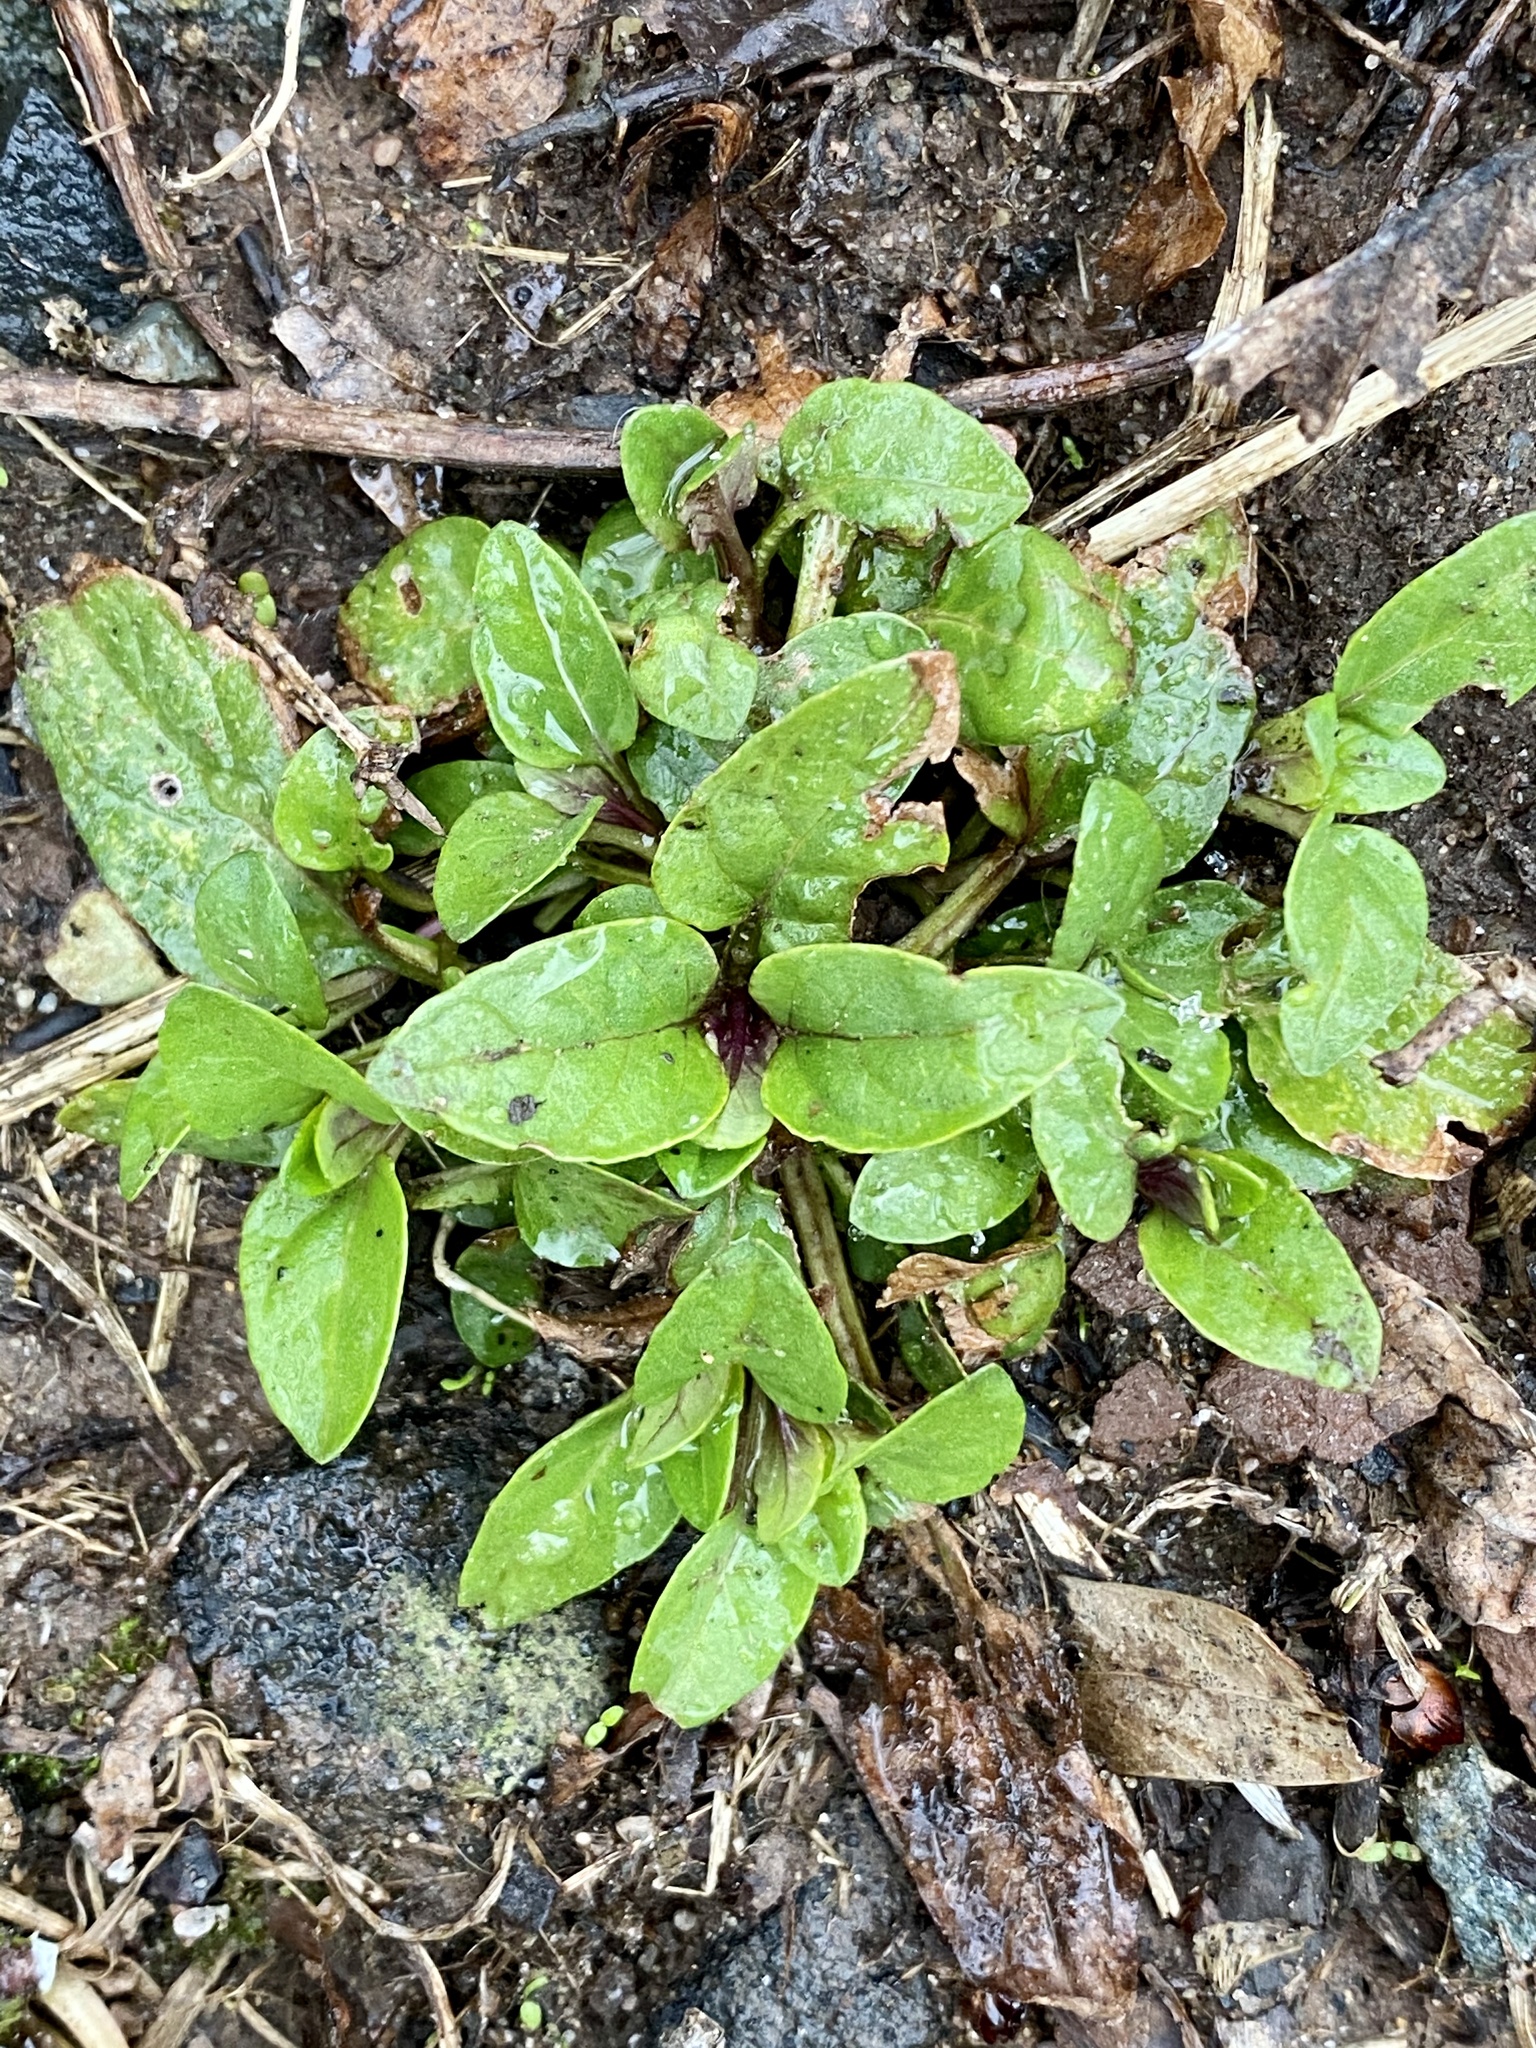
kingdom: Plantae
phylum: Tracheophyta
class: Magnoliopsida
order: Lamiales
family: Lamiaceae
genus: Prunella
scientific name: Prunella vulgaris
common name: Heal-all
